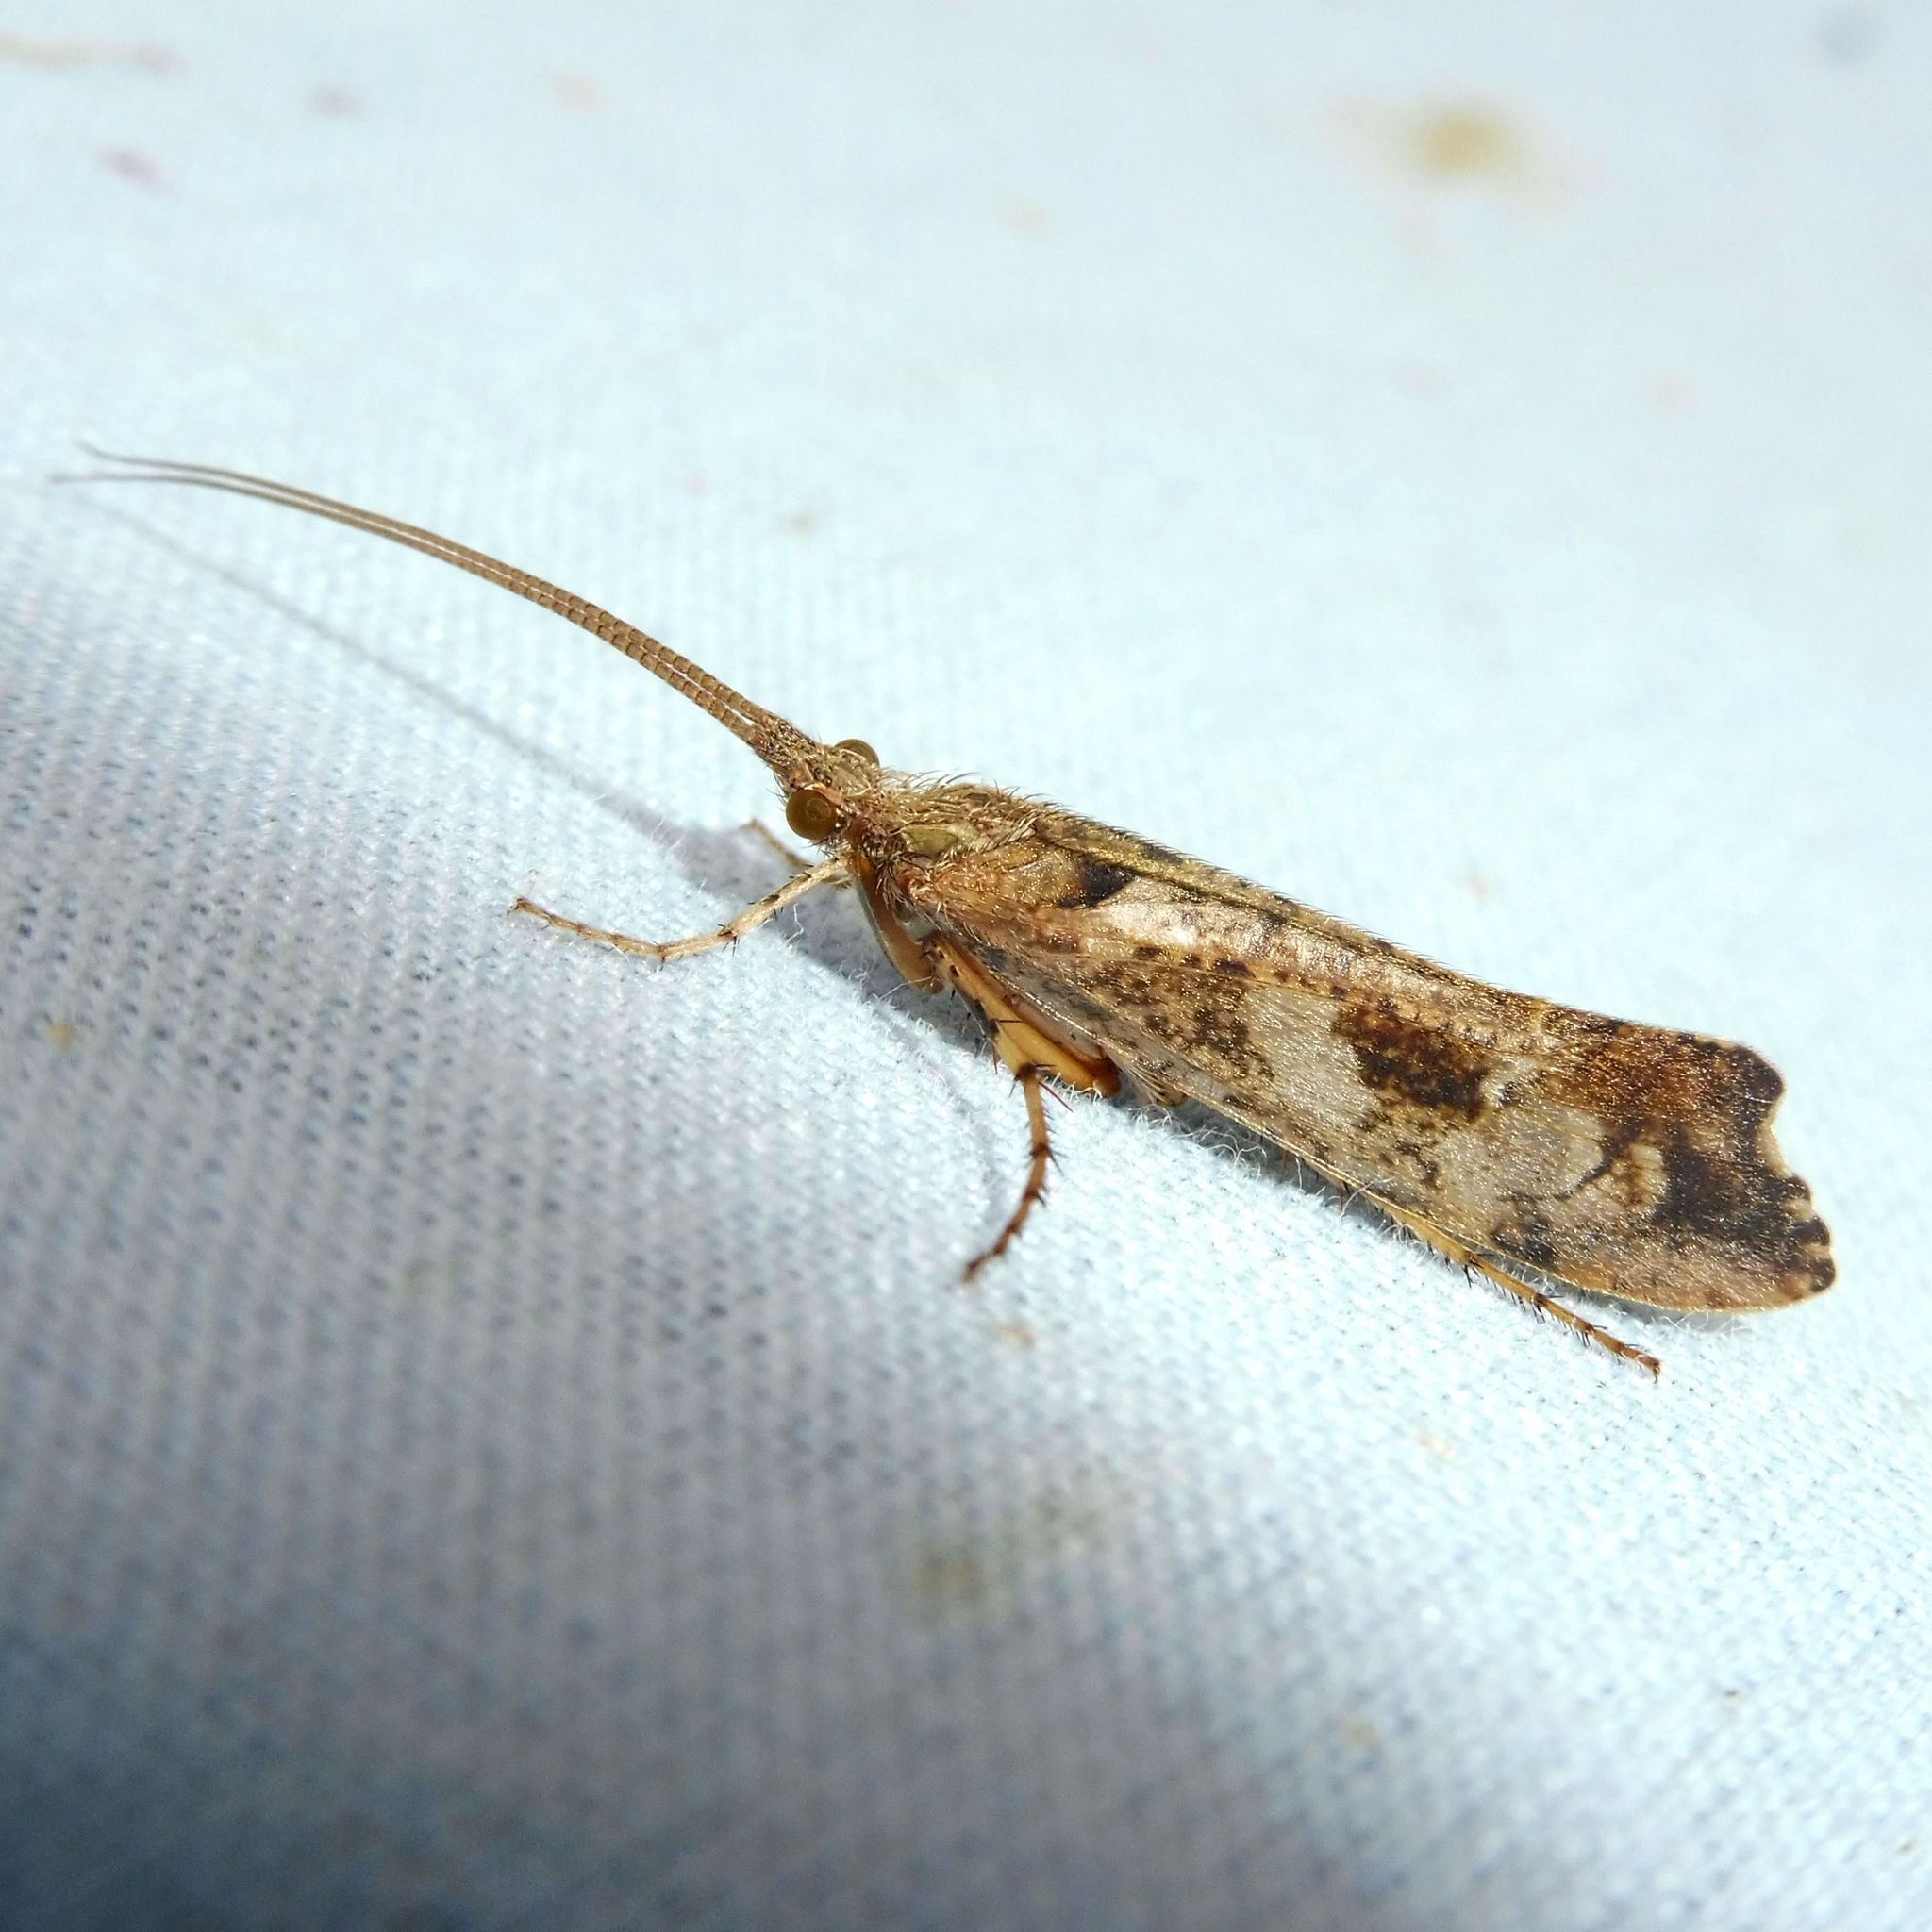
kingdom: Animalia
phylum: Arthropoda
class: Insecta
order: Trichoptera
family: Limnephilidae
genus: Glyphotaelius
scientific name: Glyphotaelius pellucidus
